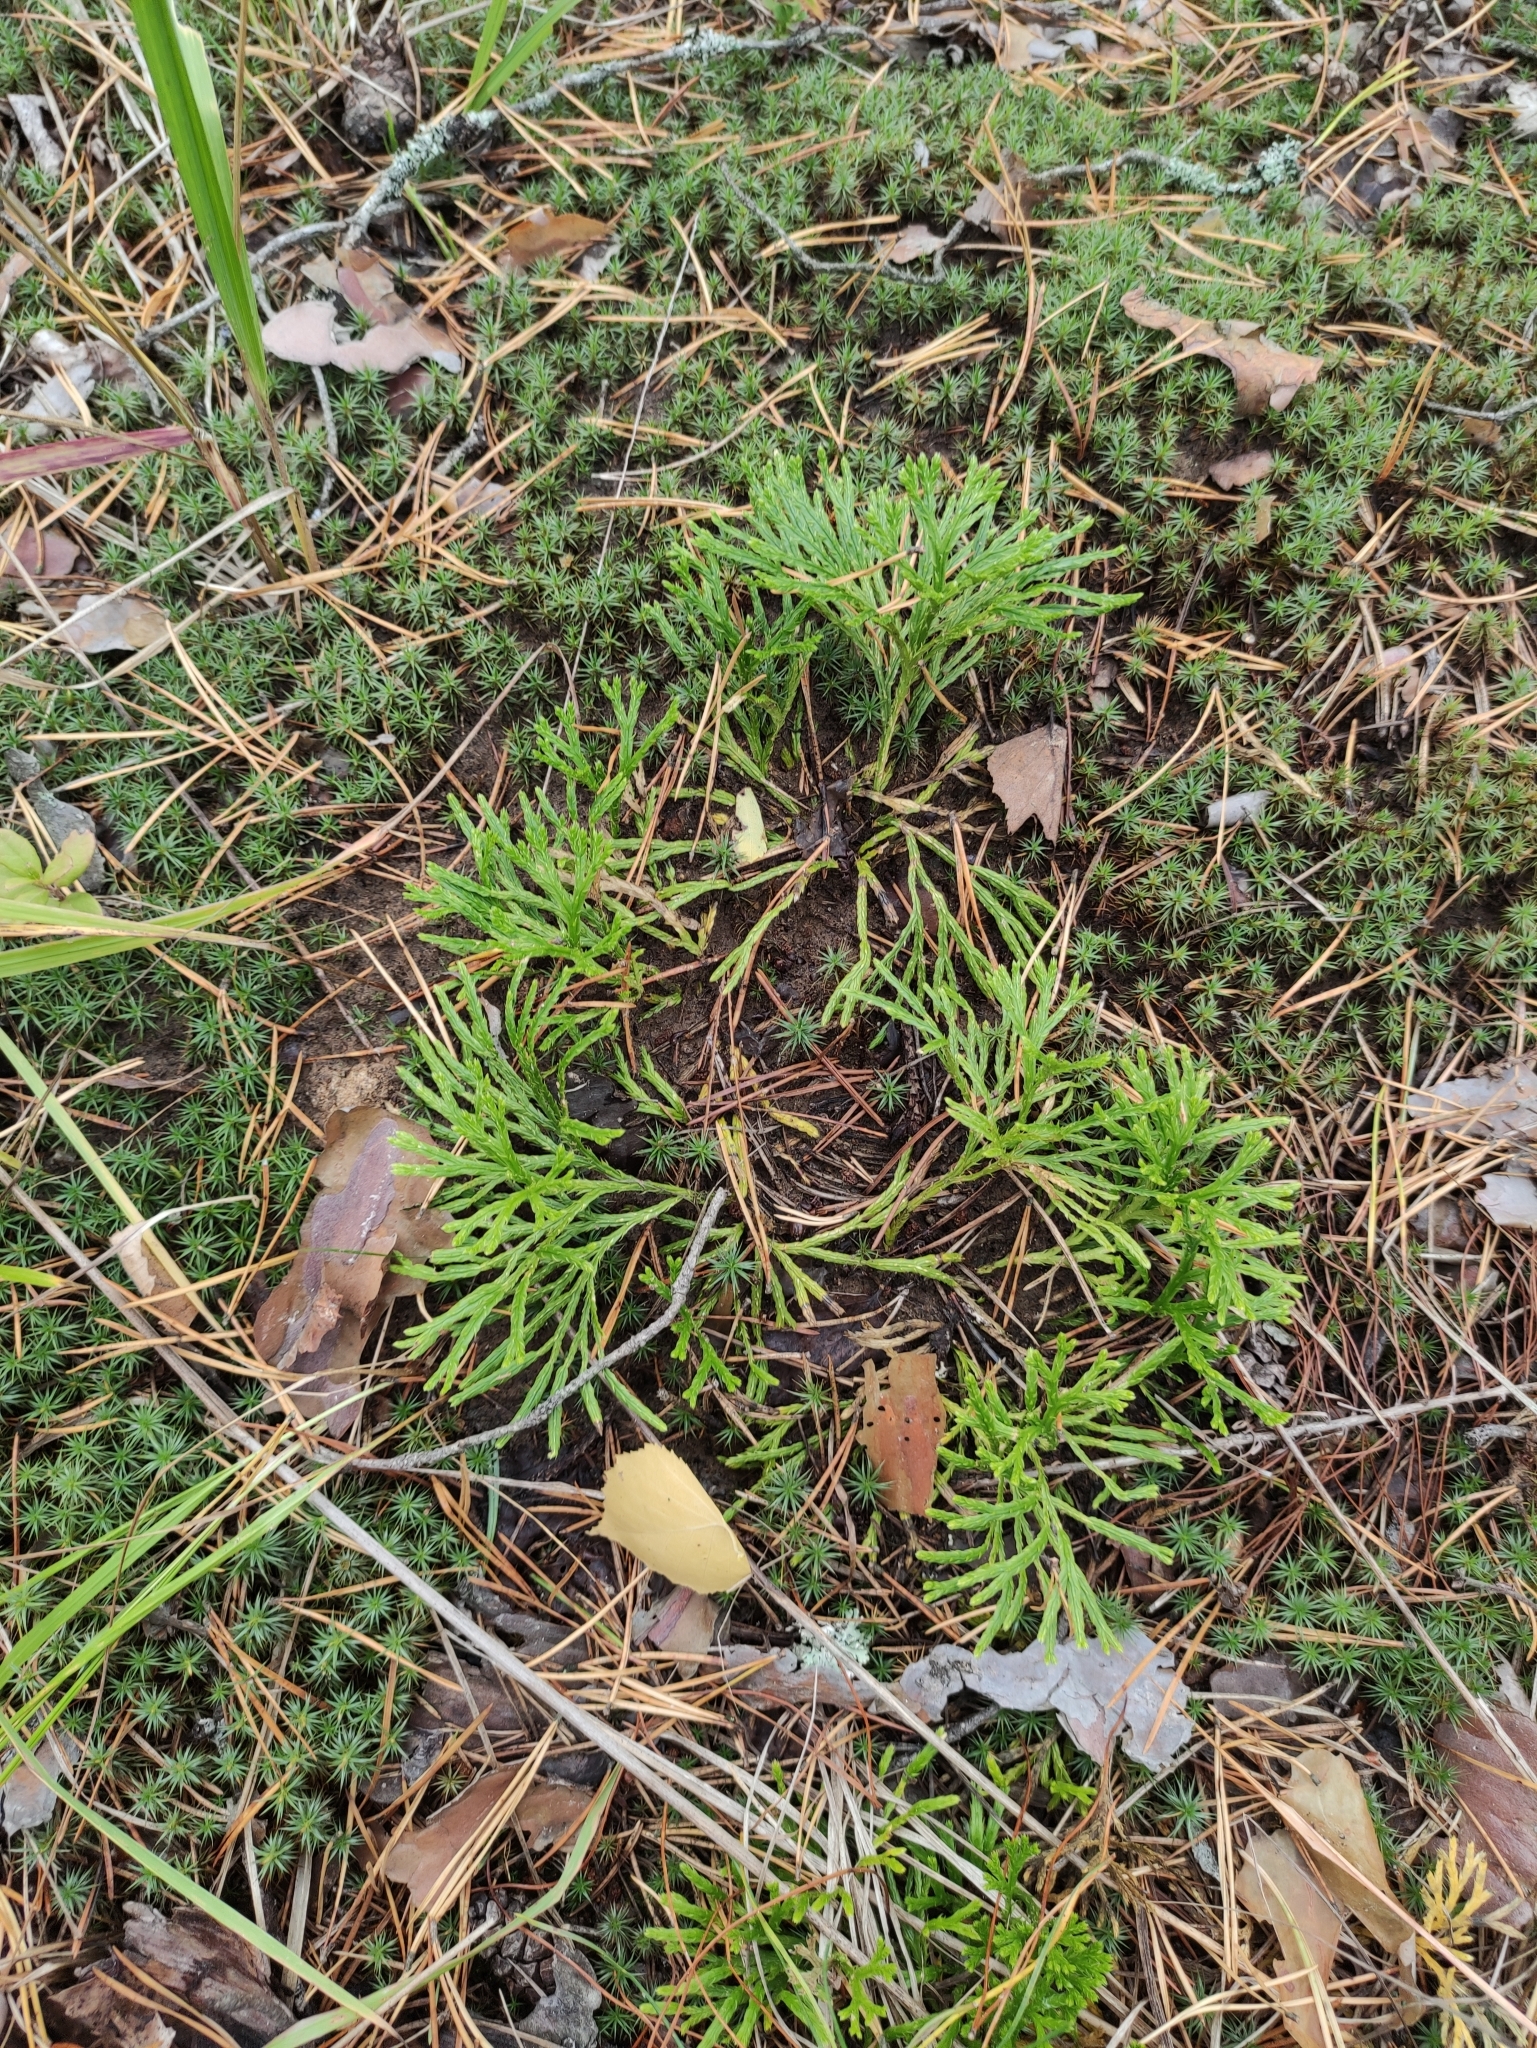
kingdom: Plantae
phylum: Tracheophyta
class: Lycopodiopsida
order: Lycopodiales
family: Lycopodiaceae
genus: Diphasiastrum
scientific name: Diphasiastrum complanatum
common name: Northern running-pine
